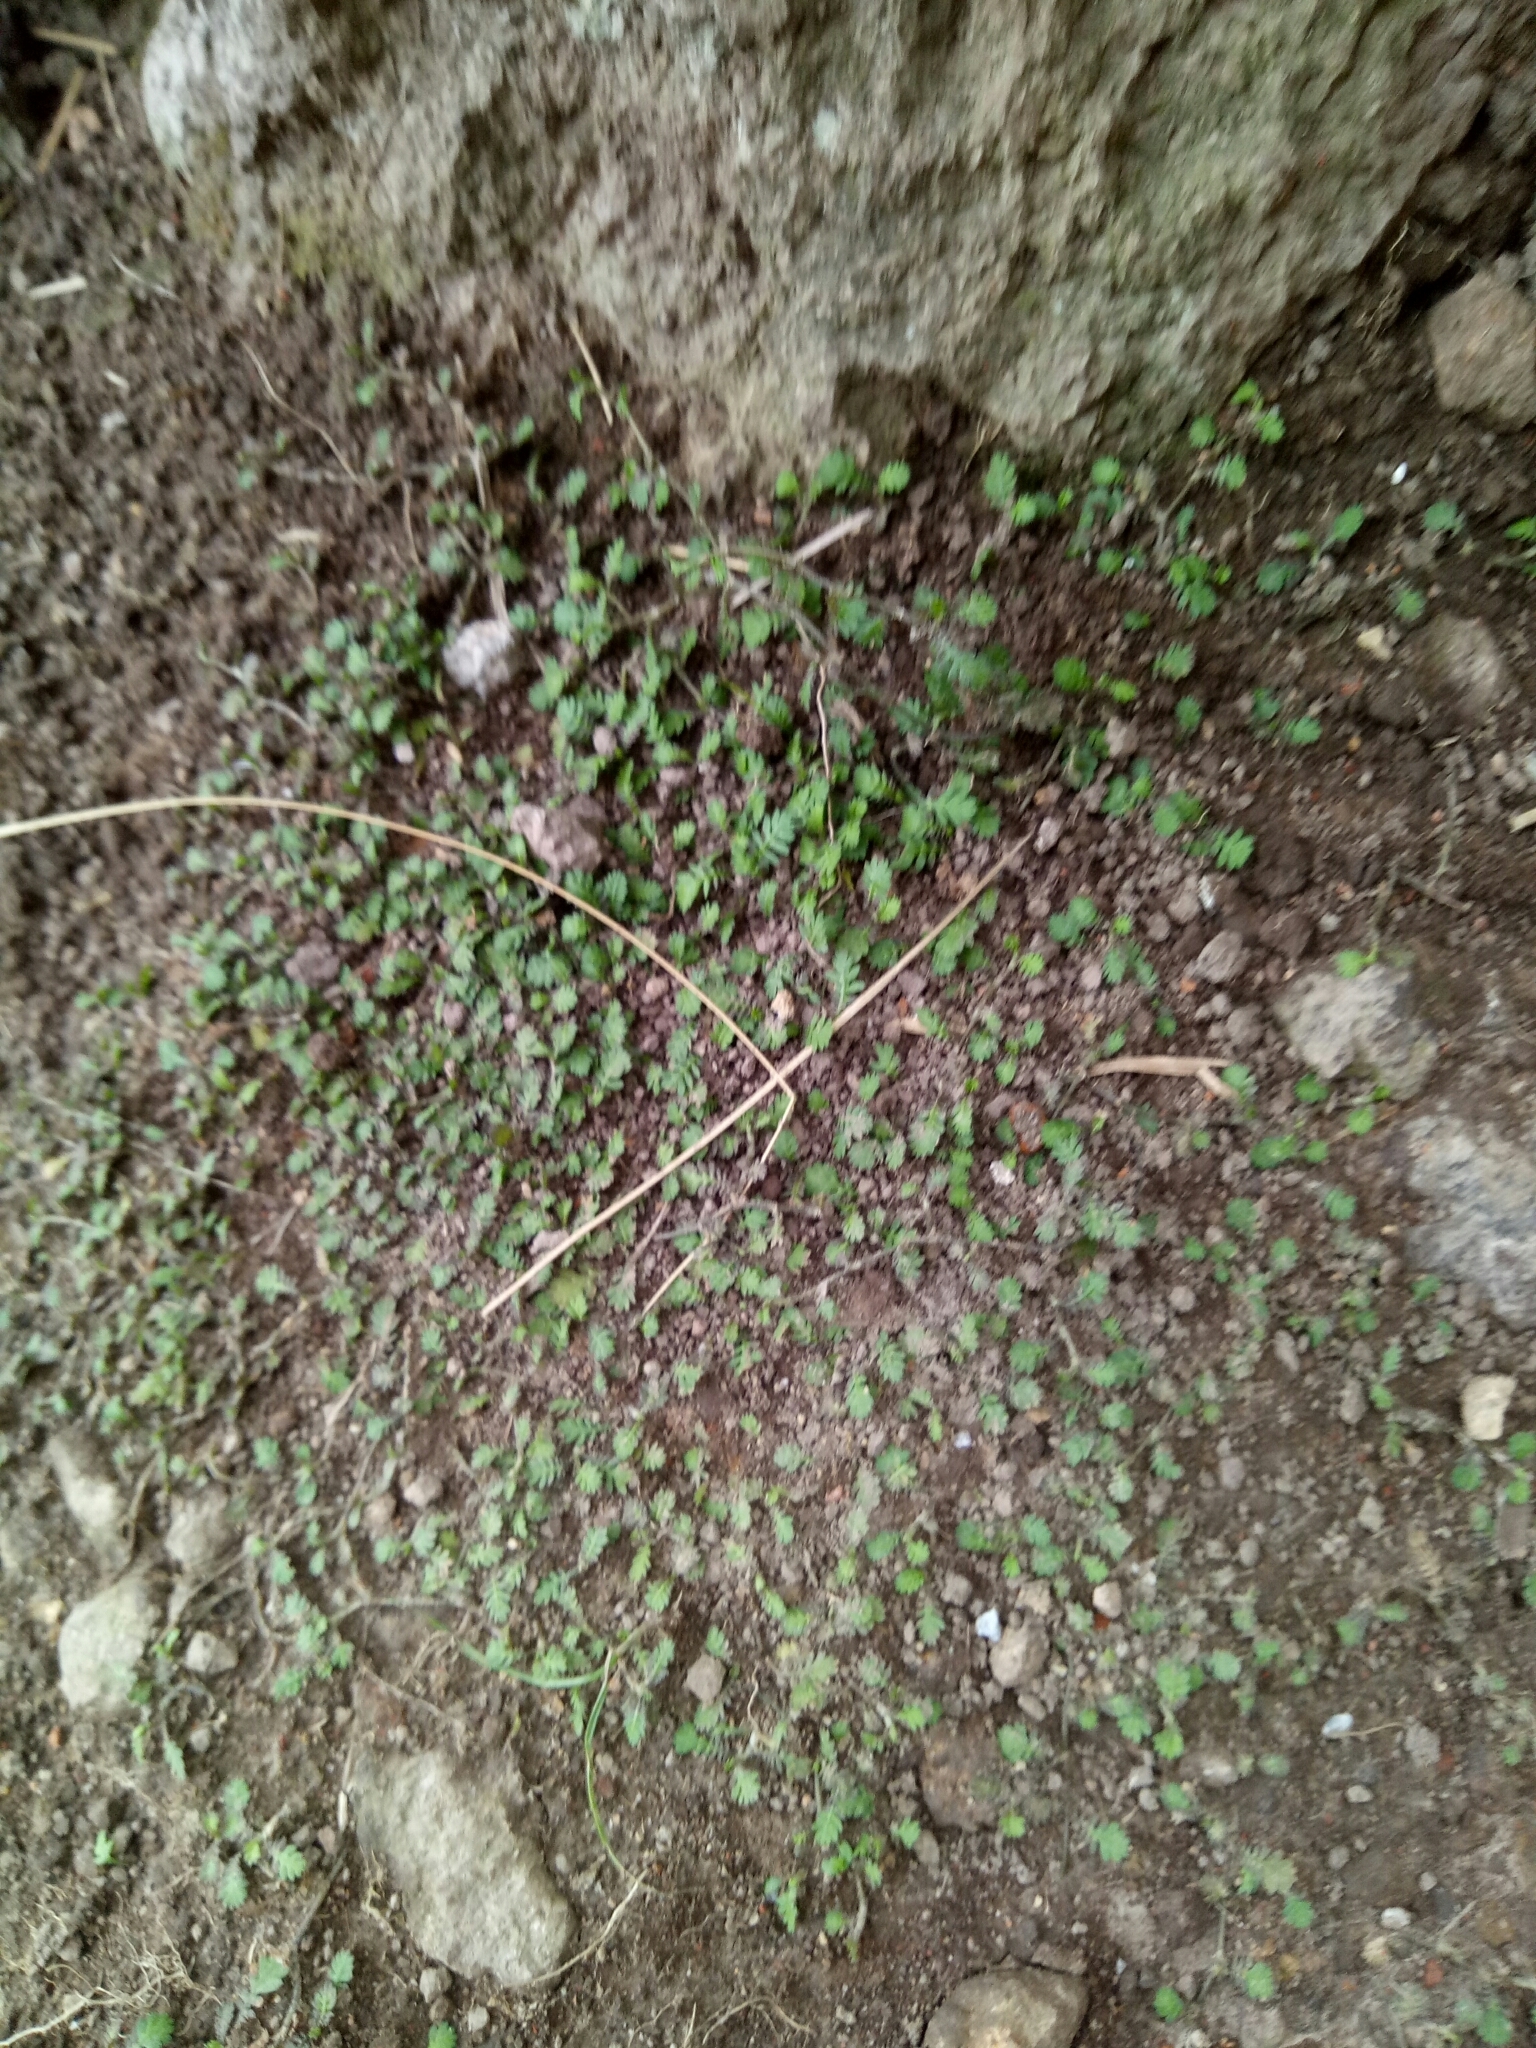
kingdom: Plantae
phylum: Tracheophyta
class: Magnoliopsida
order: Asterales
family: Asteraceae
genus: Leptinella
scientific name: Leptinella nana
